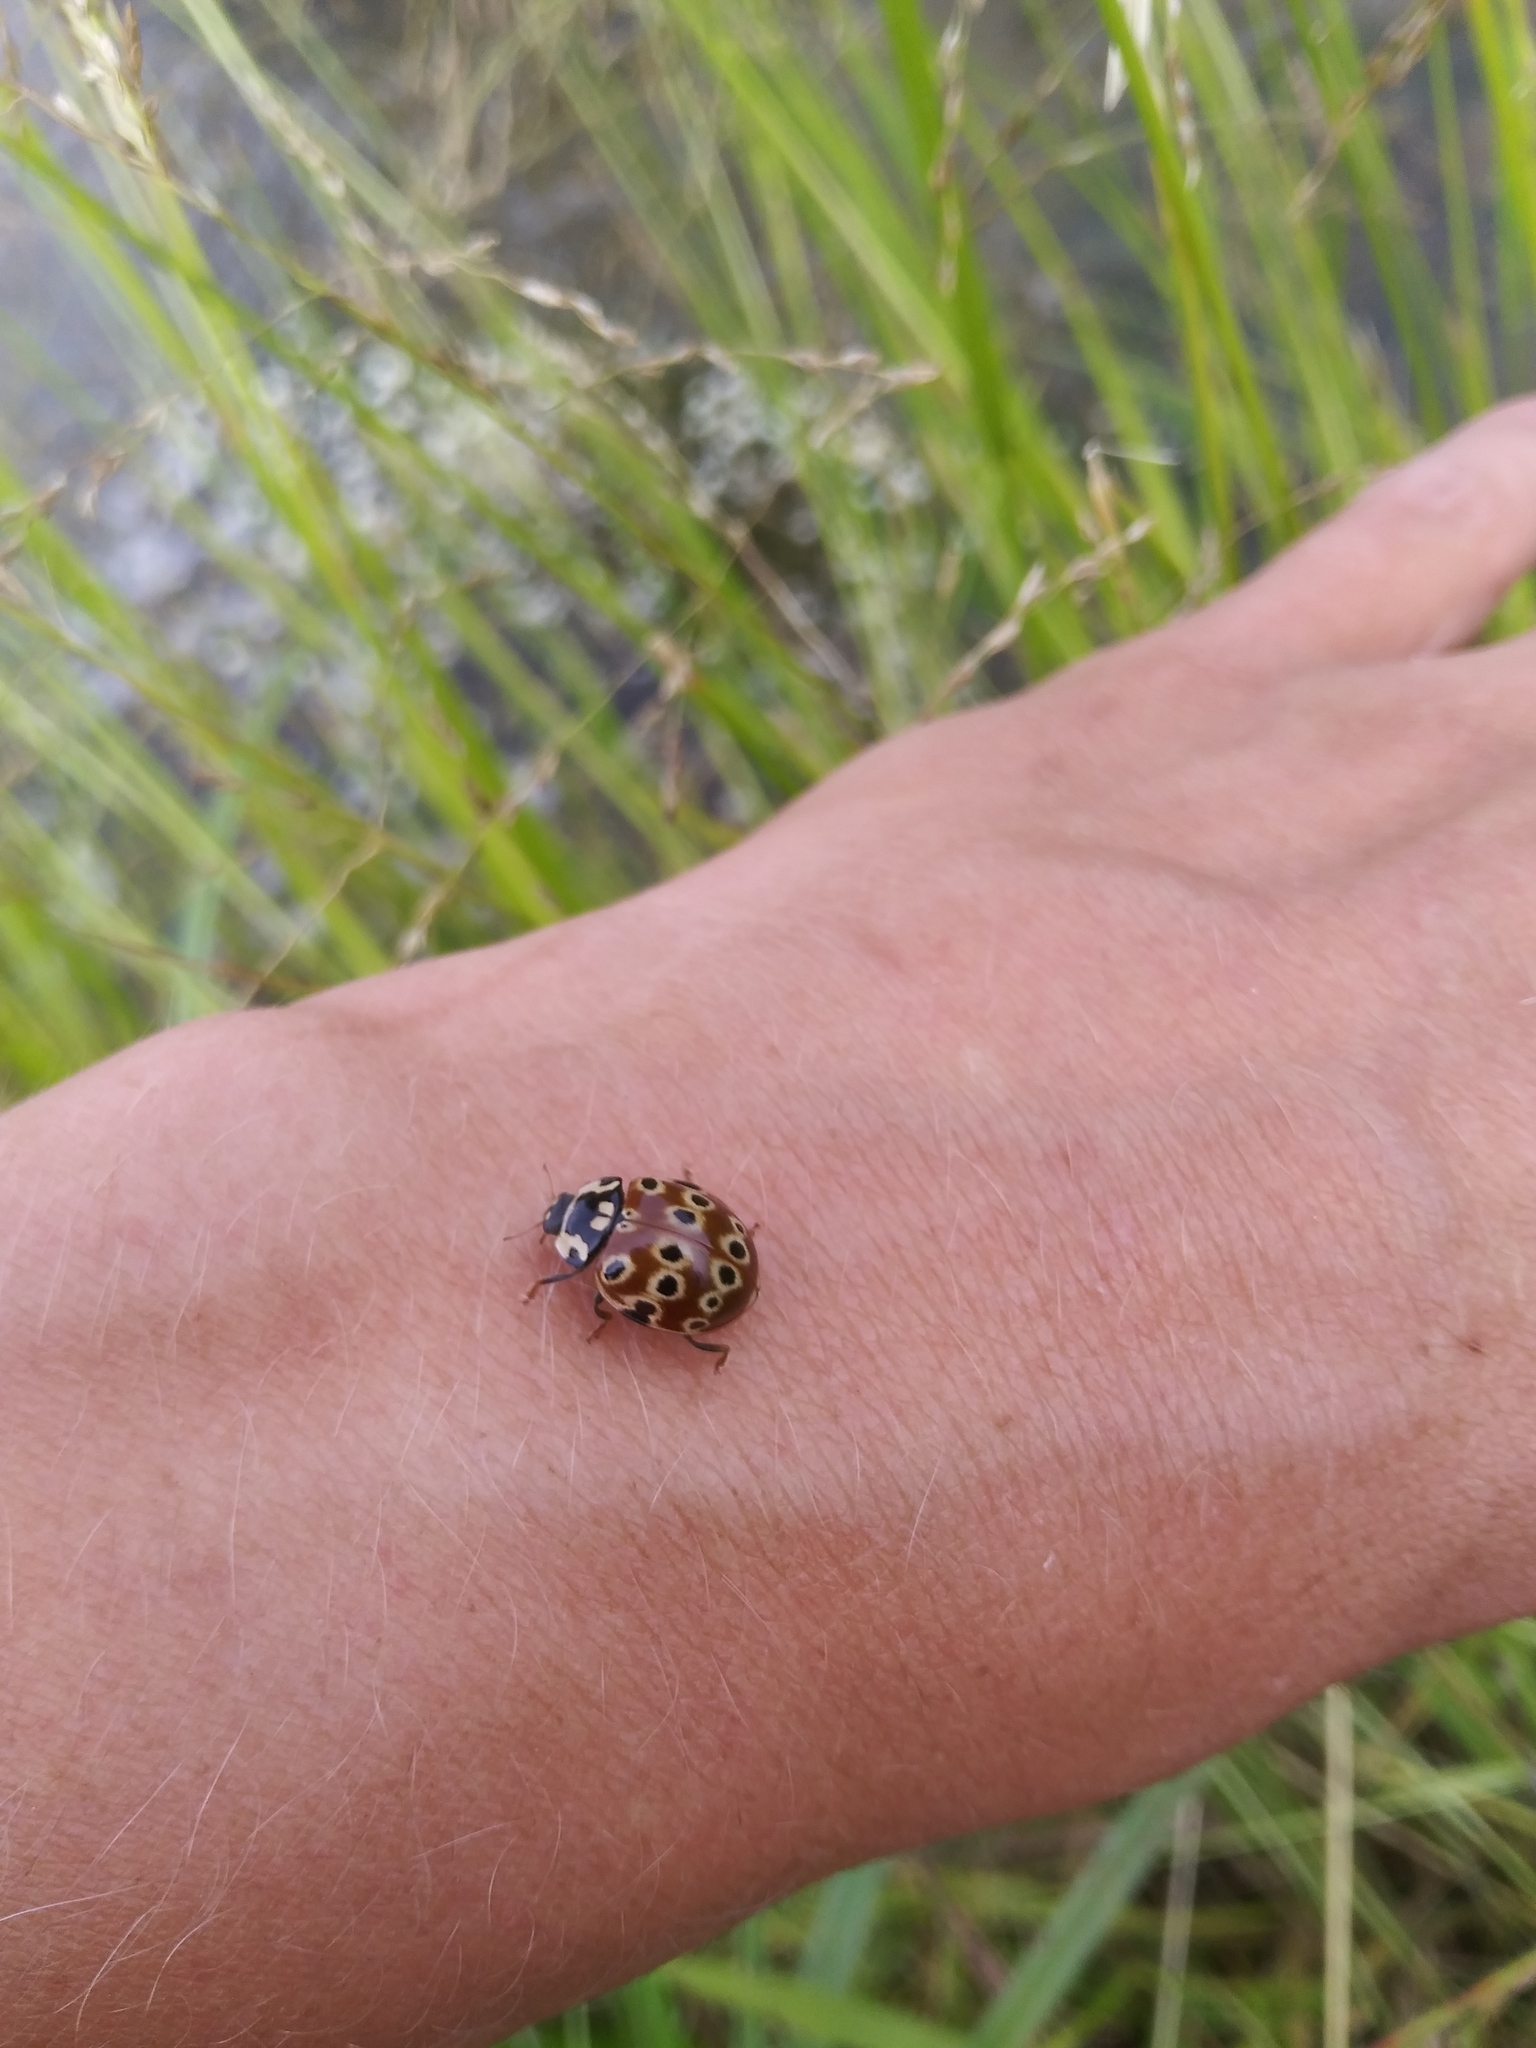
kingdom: Animalia
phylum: Arthropoda
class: Insecta
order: Coleoptera
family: Coccinellidae
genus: Anatis
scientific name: Anatis mali
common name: Eye-spotted lady beetle
